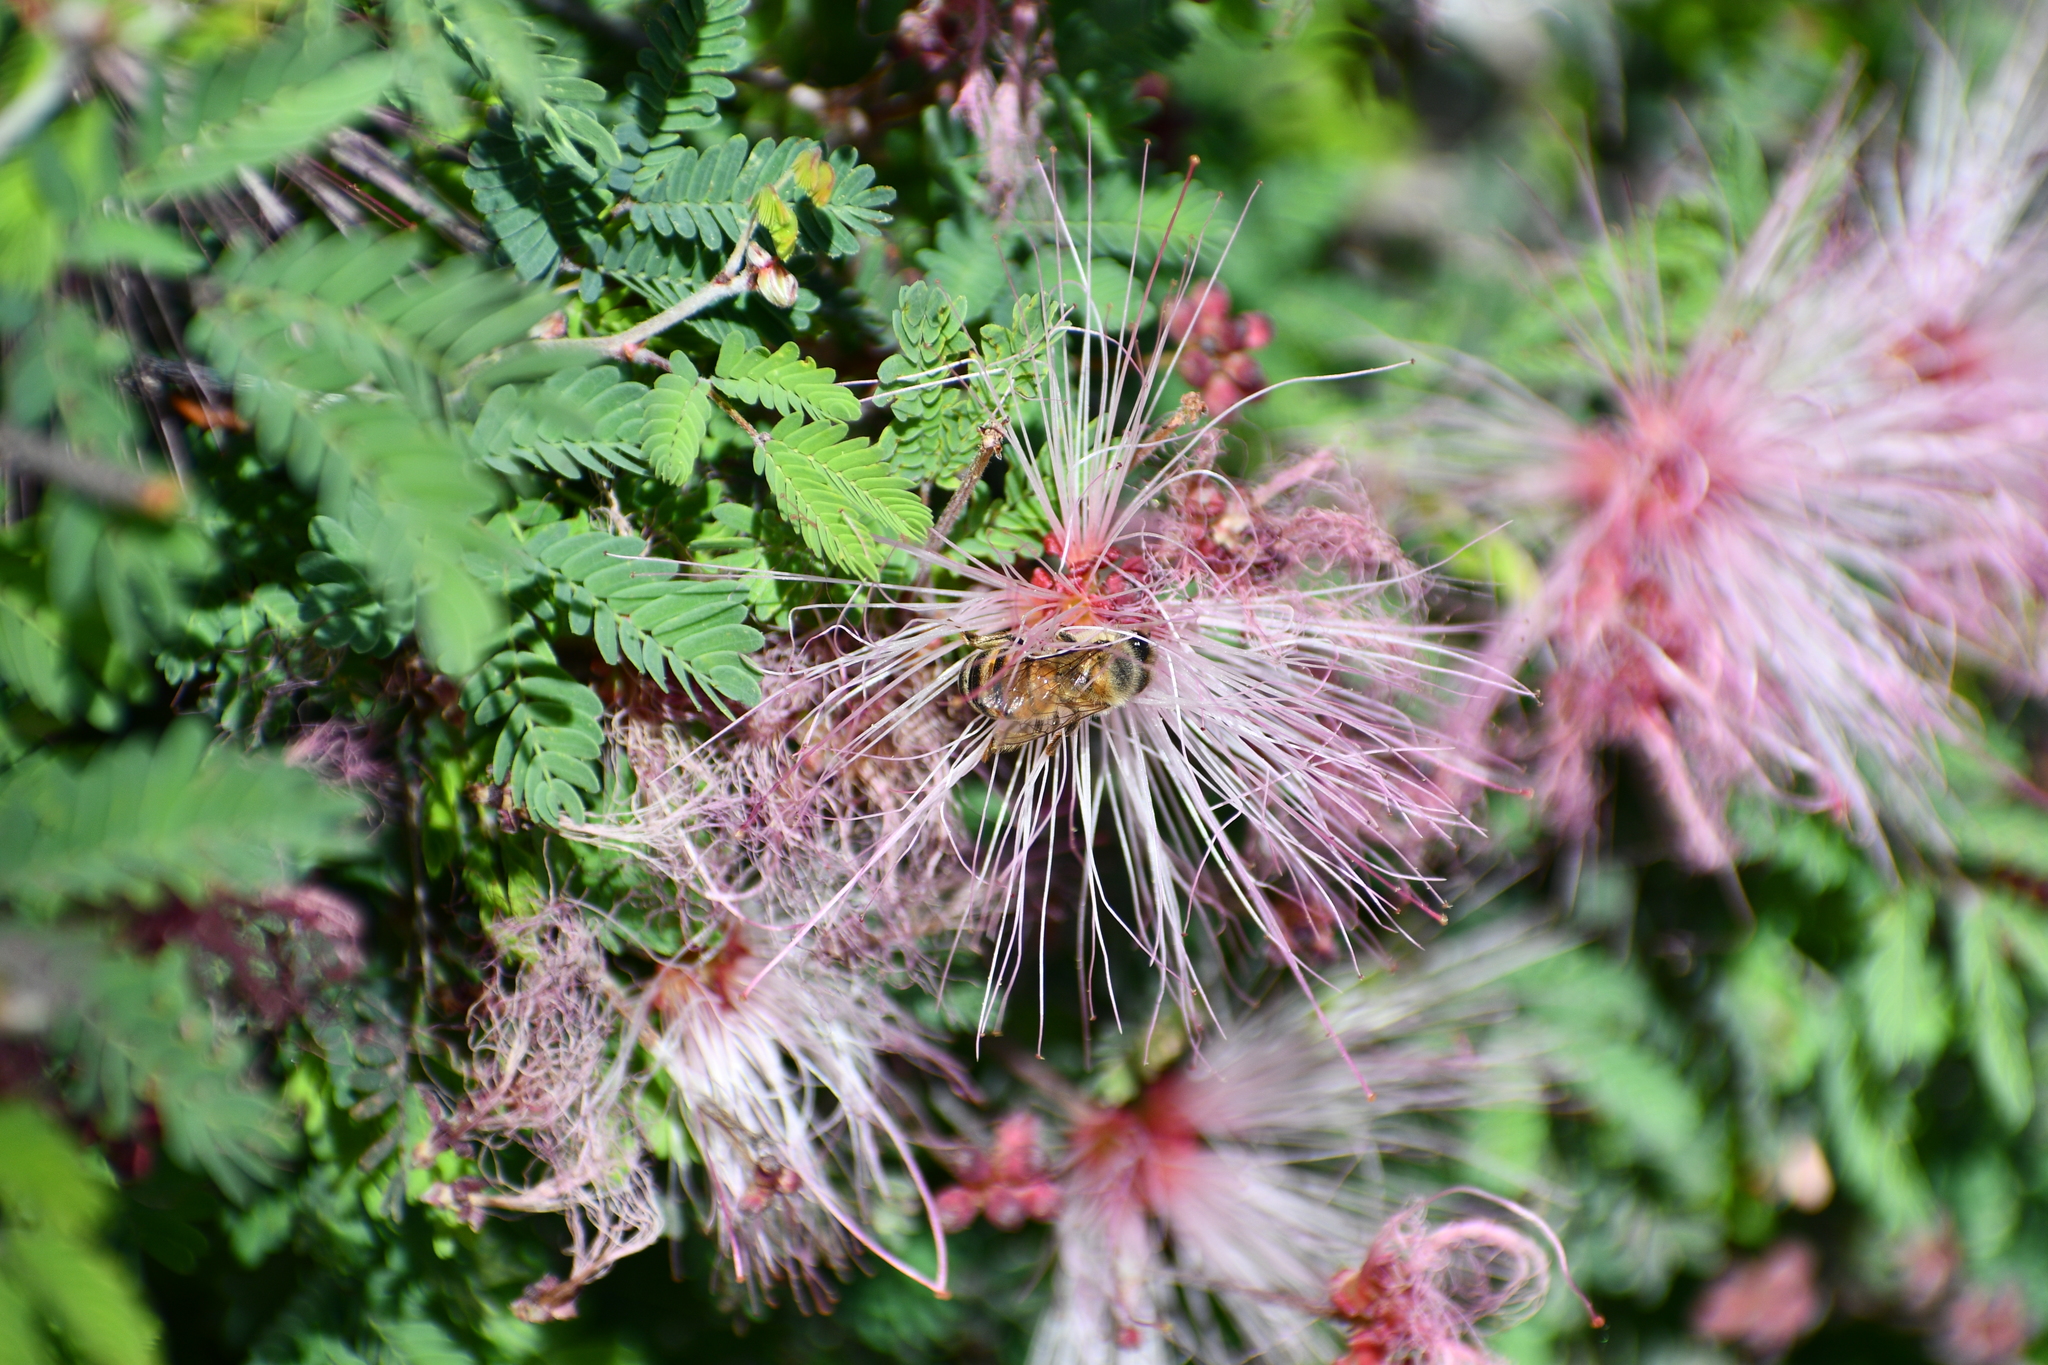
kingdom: Animalia
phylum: Arthropoda
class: Insecta
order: Hymenoptera
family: Apidae
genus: Apis
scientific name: Apis mellifera
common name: Honey bee
